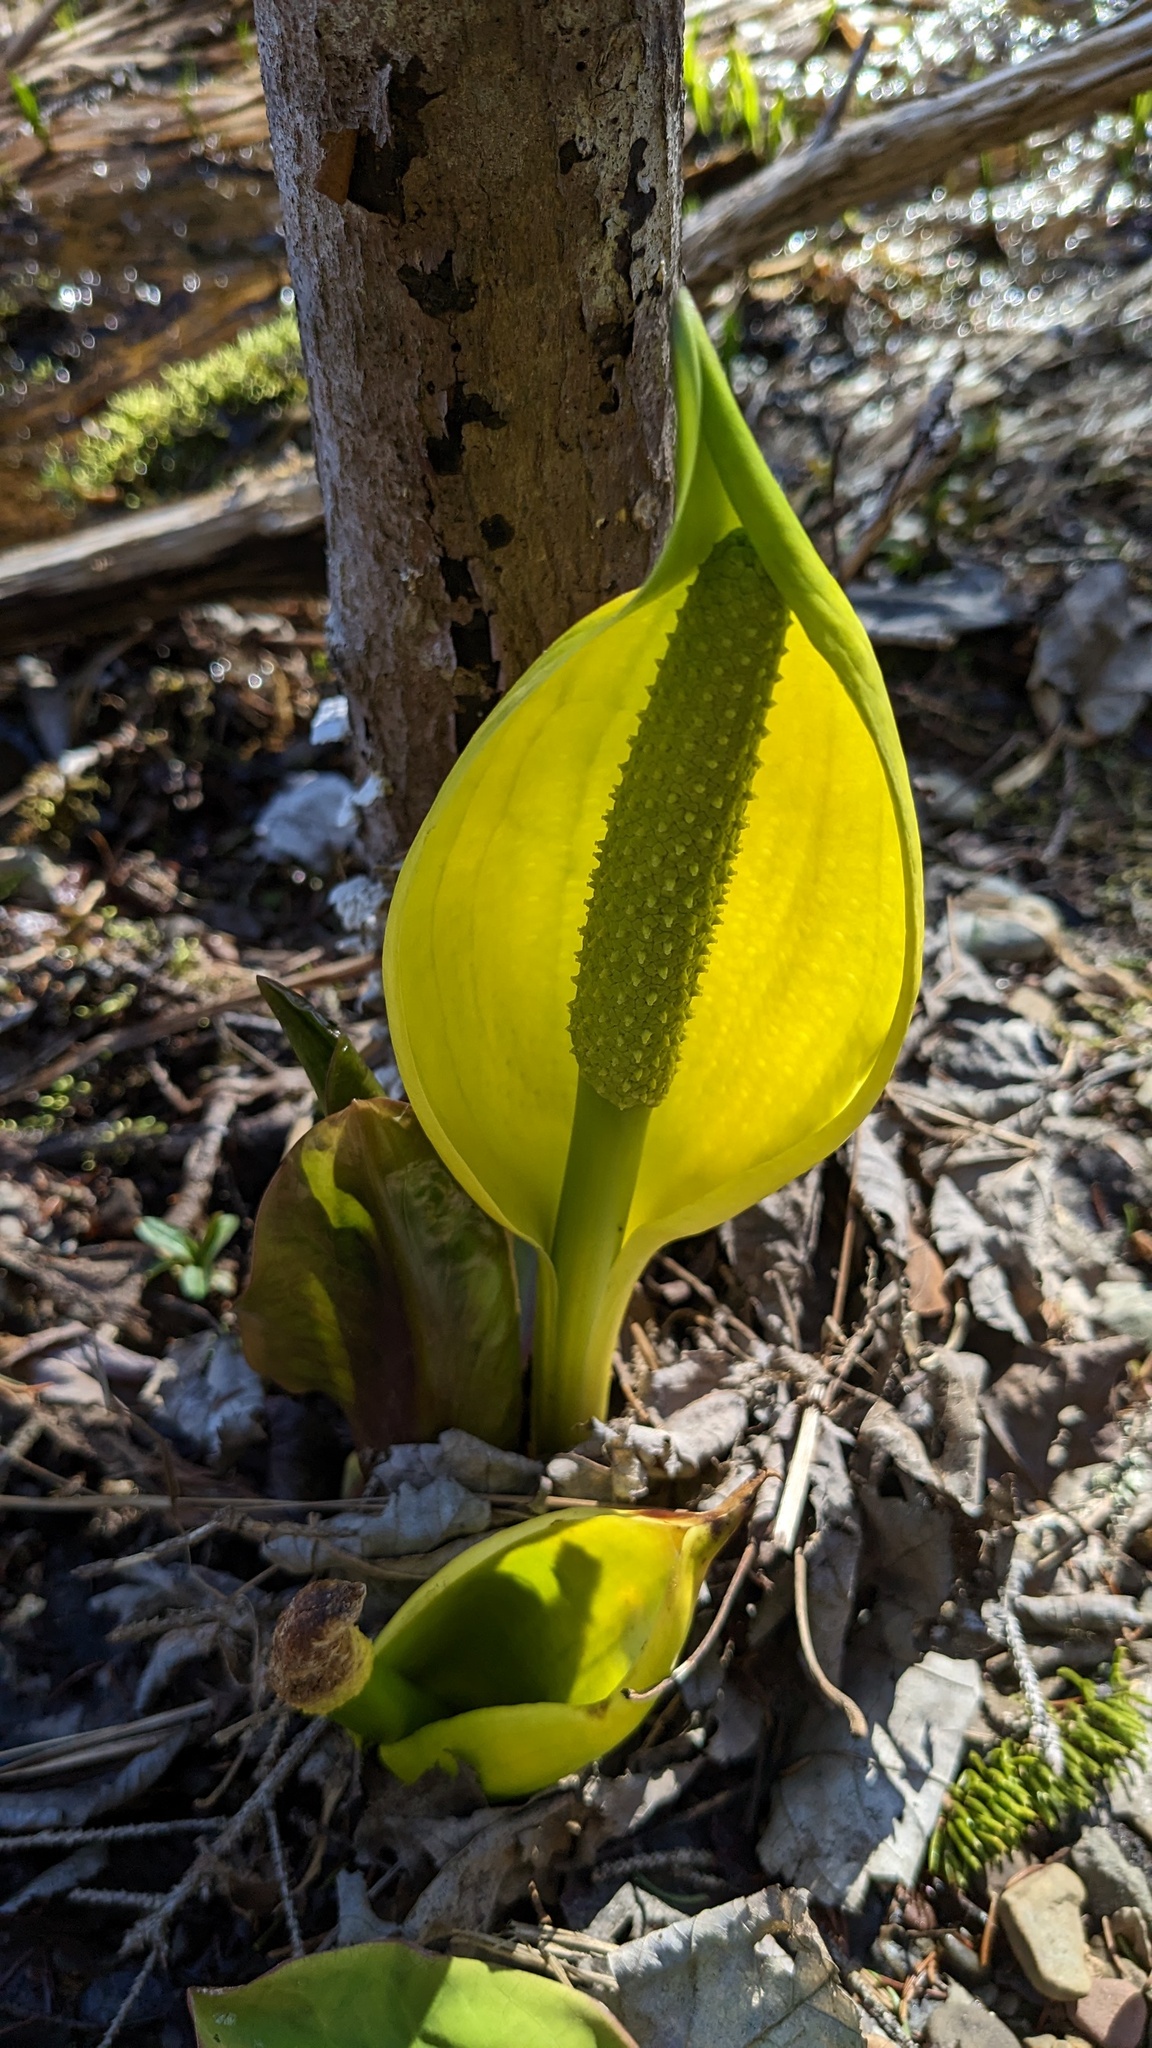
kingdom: Plantae
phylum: Tracheophyta
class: Liliopsida
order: Alismatales
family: Araceae
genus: Lysichiton
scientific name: Lysichiton americanus
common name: American skunk cabbage
